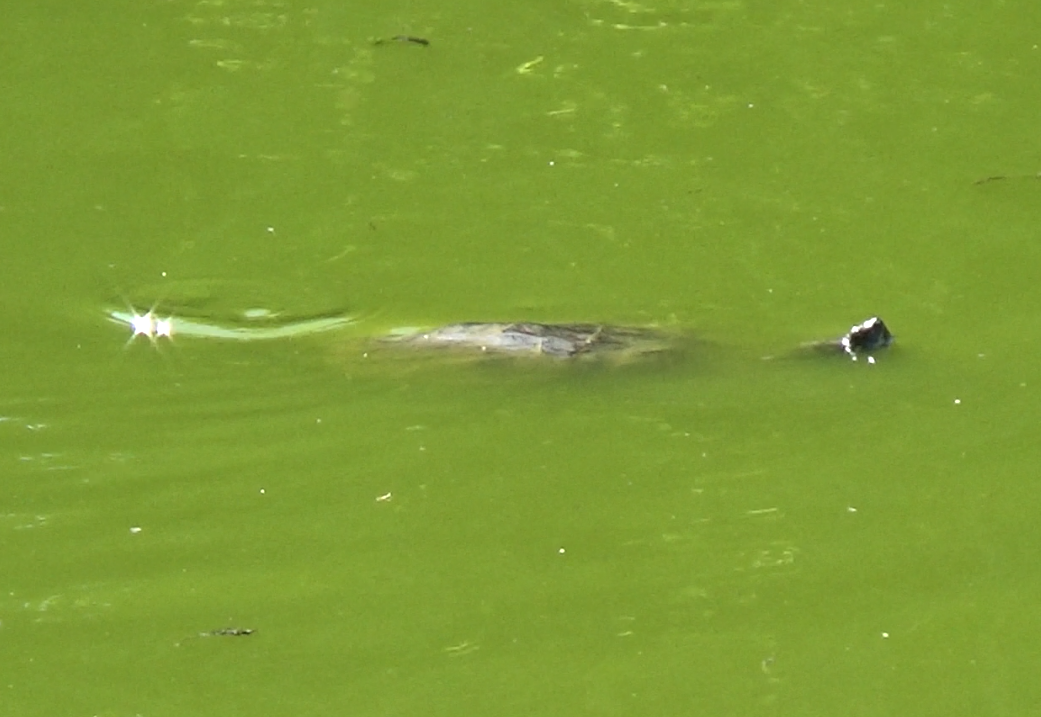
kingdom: Animalia
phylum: Chordata
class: Testudines
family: Emydidae
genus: Trachemys
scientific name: Trachemys scripta
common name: Slider
